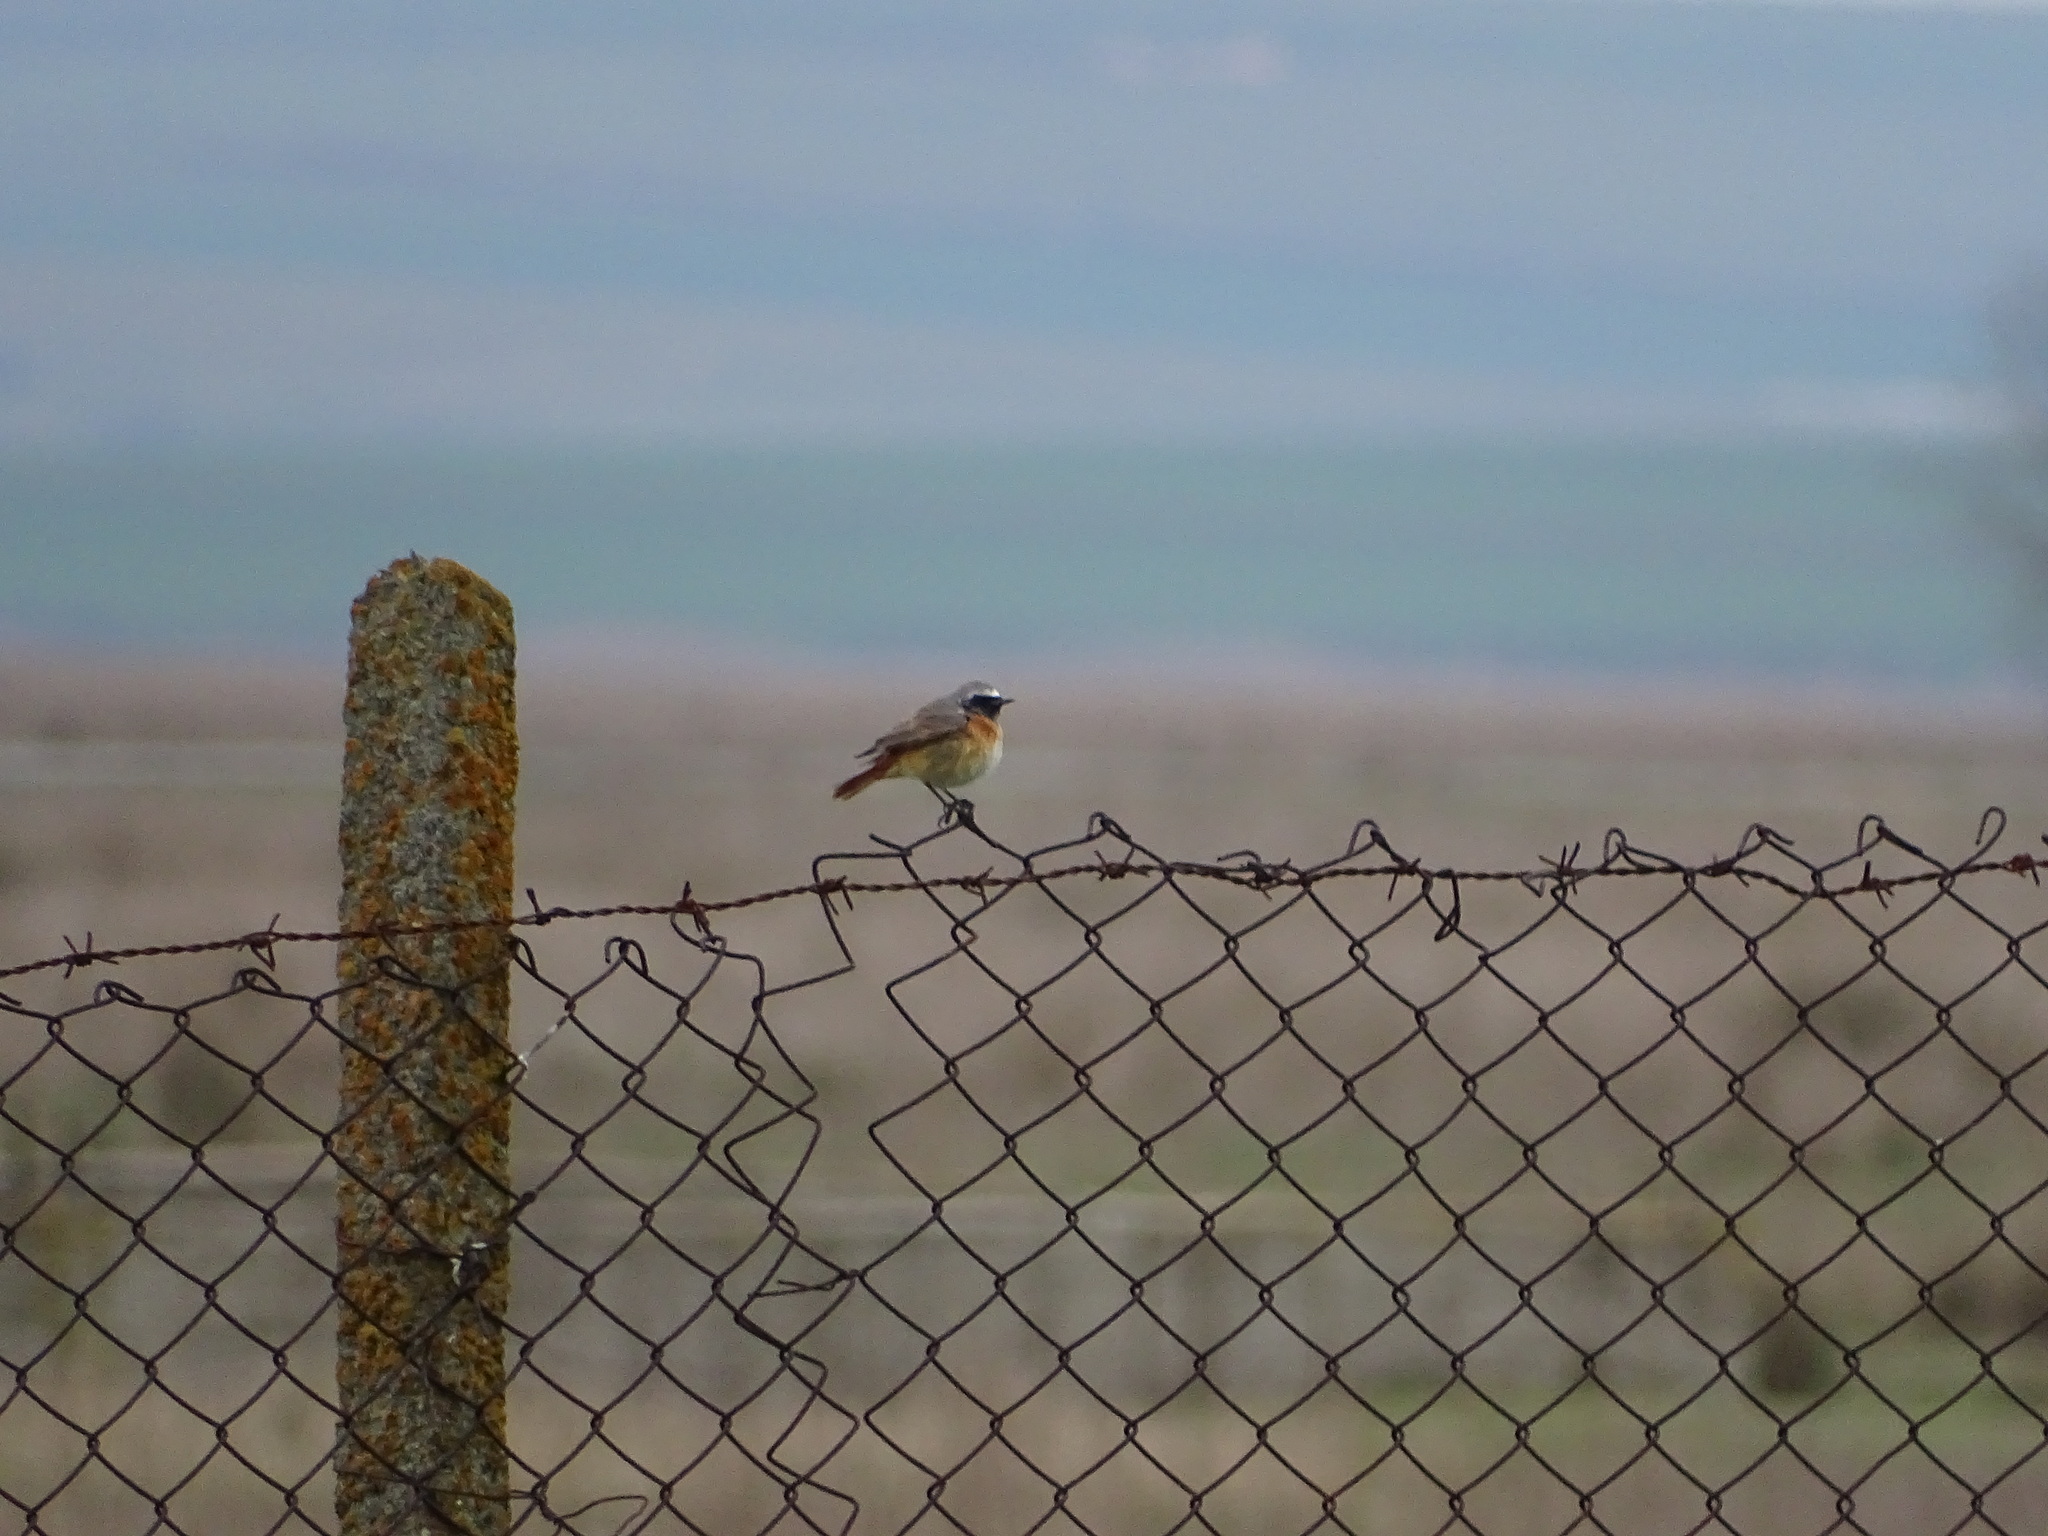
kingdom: Animalia
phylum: Chordata
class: Aves
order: Passeriformes
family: Muscicapidae
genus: Phoenicurus
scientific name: Phoenicurus phoenicurus
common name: Common redstart
